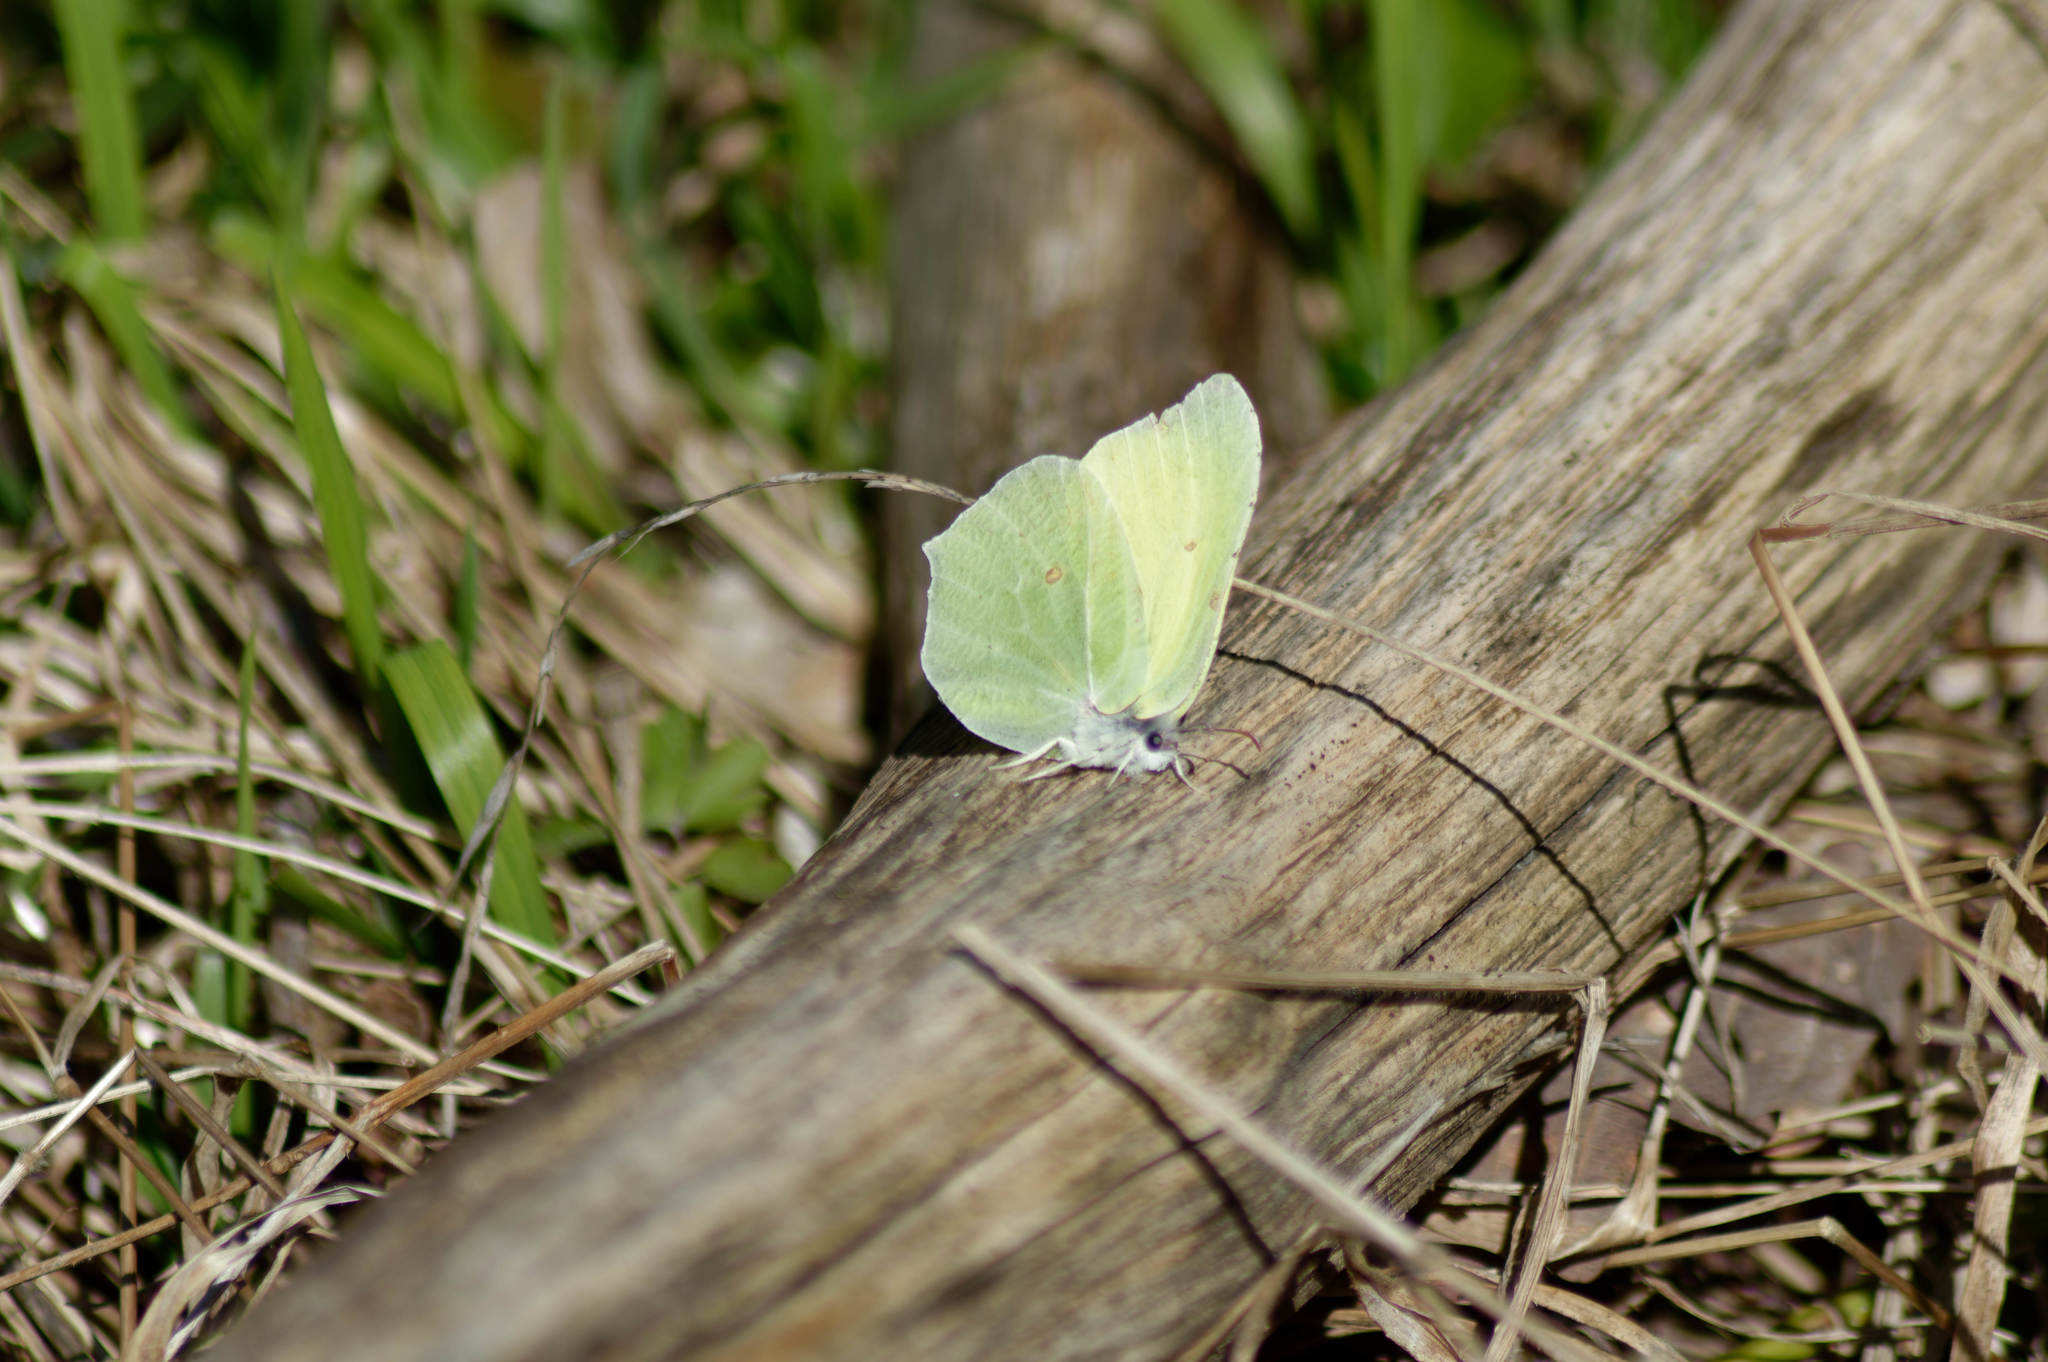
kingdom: Animalia
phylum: Arthropoda
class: Insecta
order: Lepidoptera
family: Pieridae
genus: Gonepteryx
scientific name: Gonepteryx rhamni
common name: Brimstone
